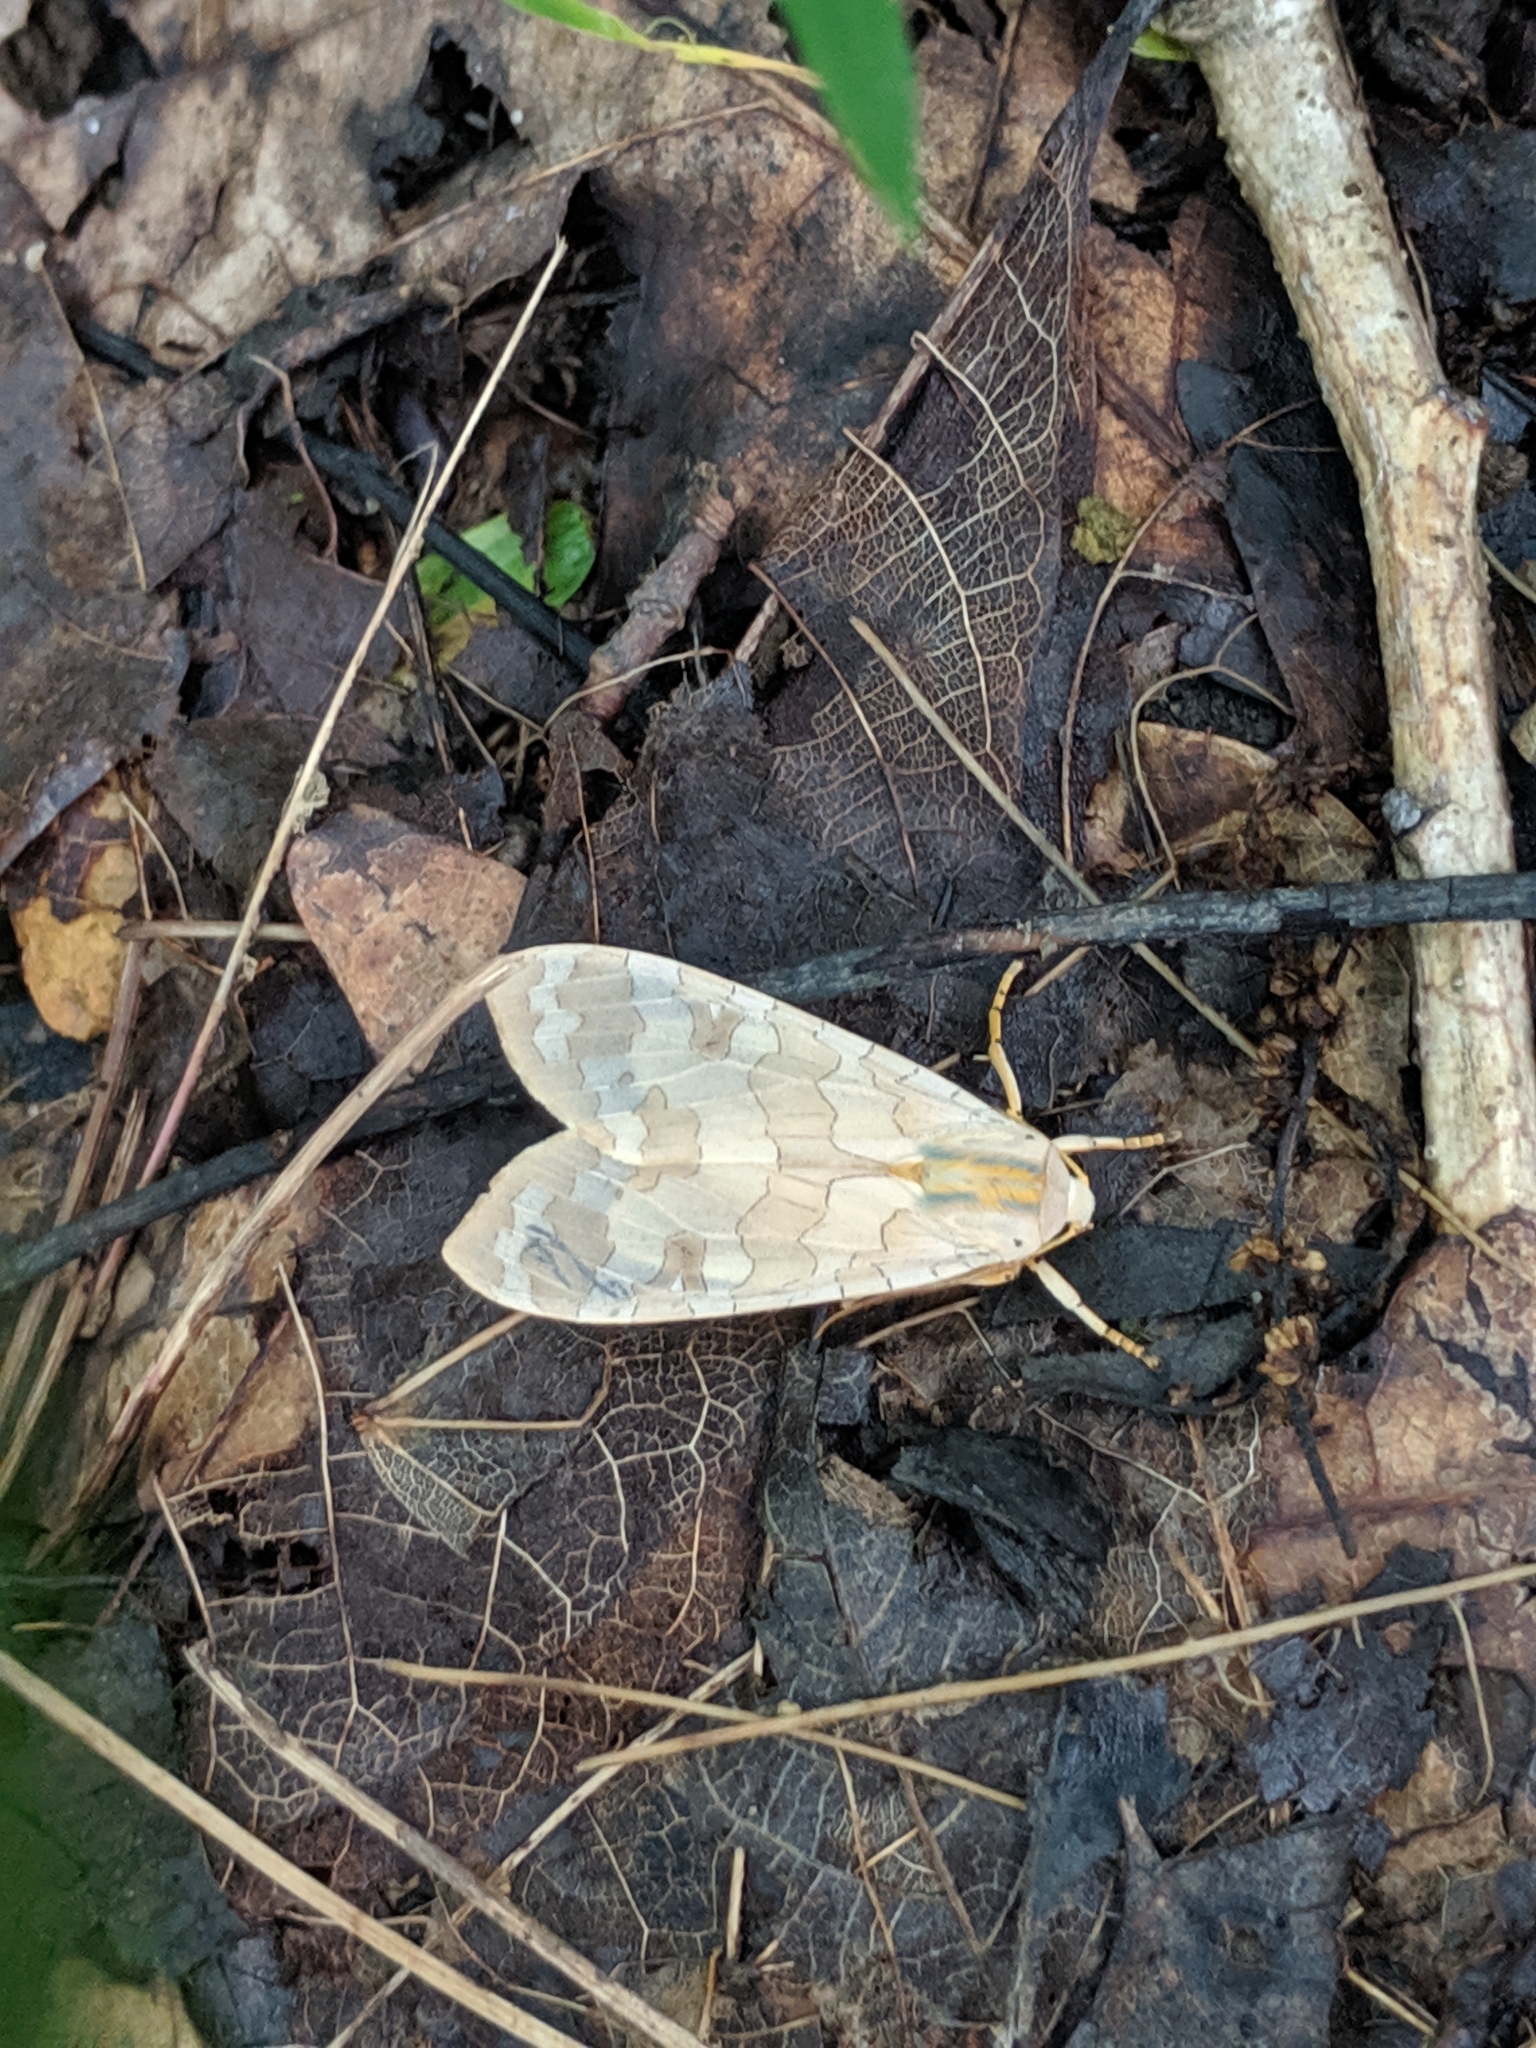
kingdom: Animalia
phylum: Arthropoda
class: Insecta
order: Lepidoptera
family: Erebidae
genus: Halysidota
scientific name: Halysidota
